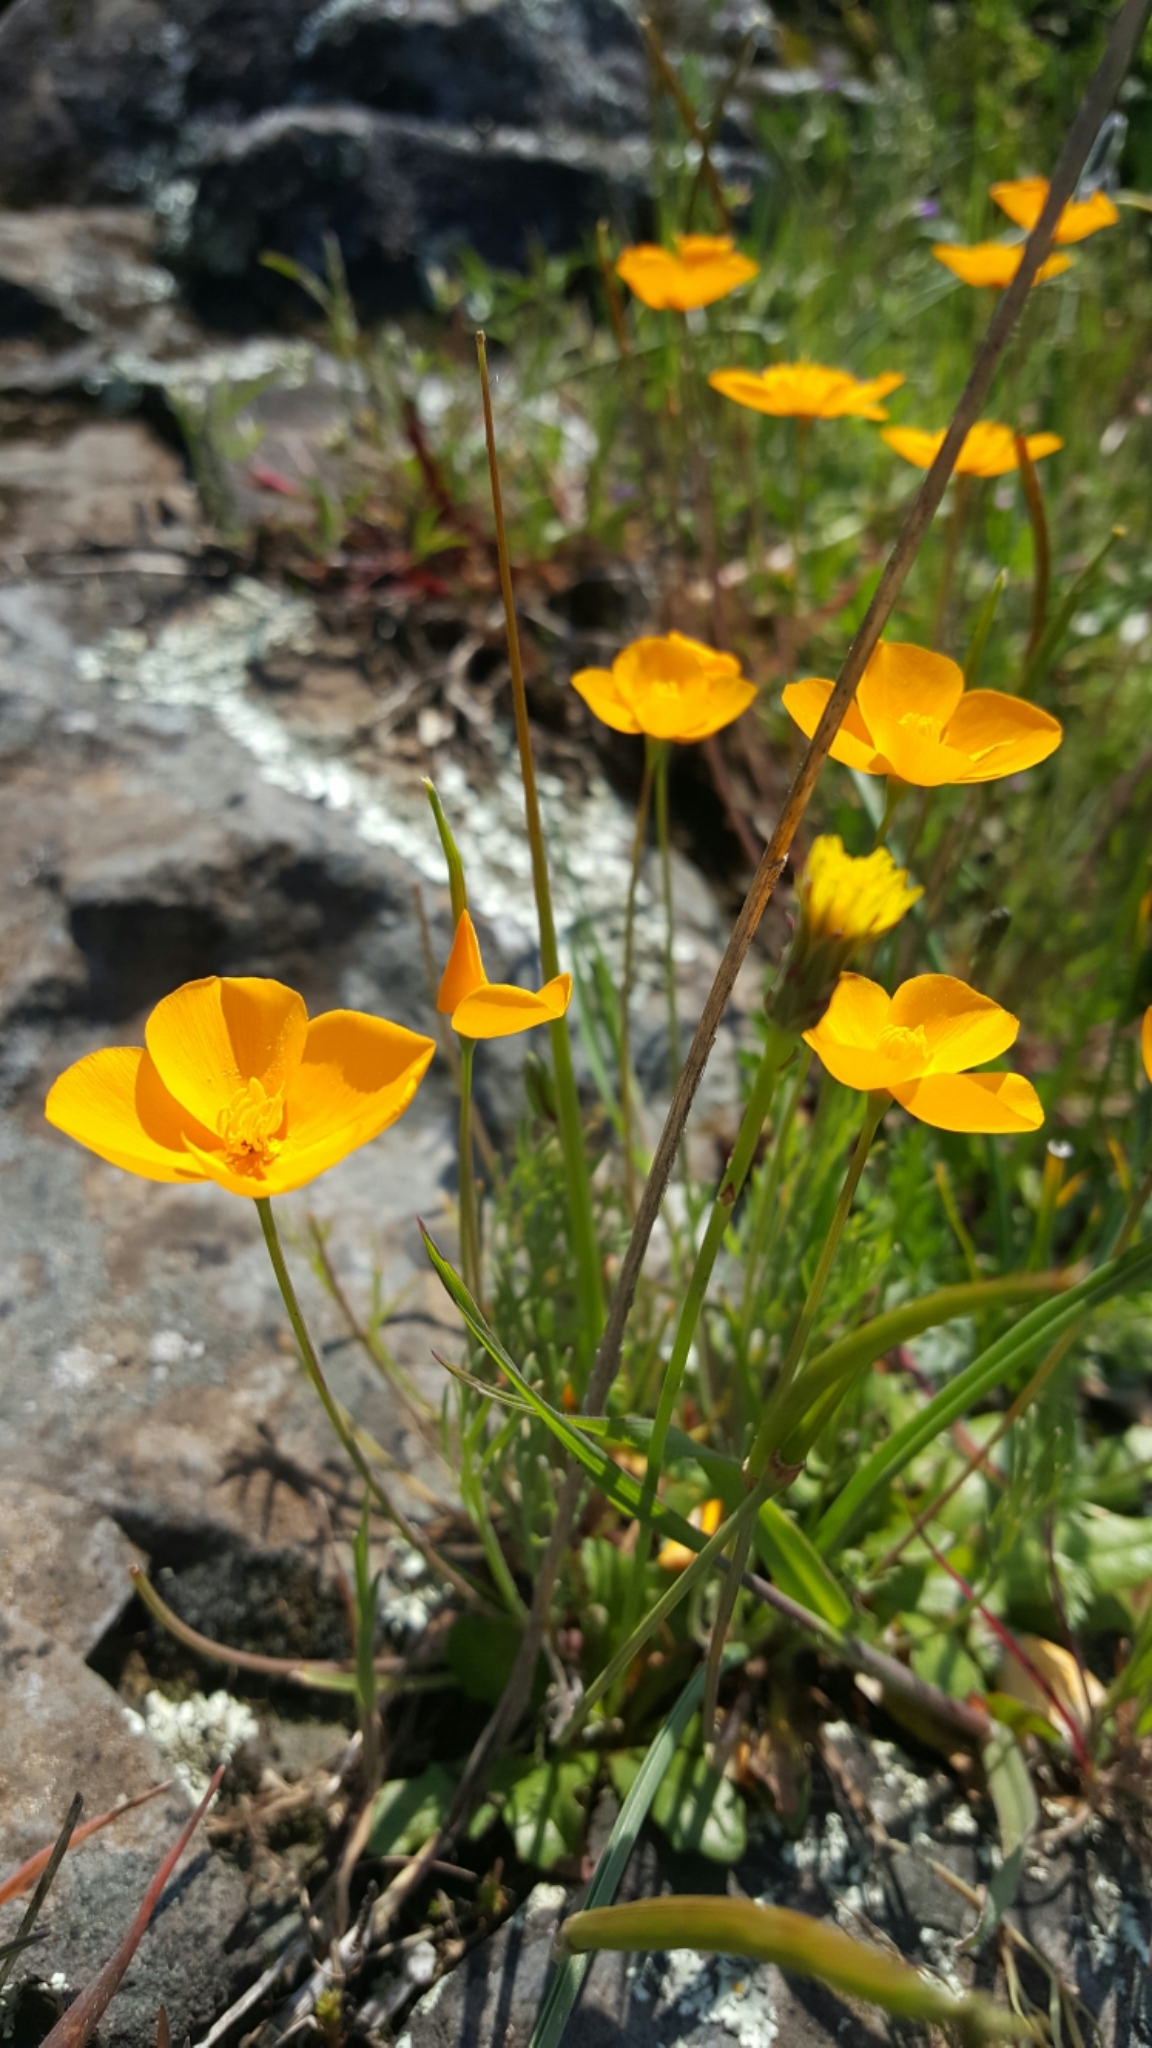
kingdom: Plantae
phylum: Tracheophyta
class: Magnoliopsida
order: Ranunculales
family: Papaveraceae
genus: Eschscholzia
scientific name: Eschscholzia lobbii
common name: Frying-pans
